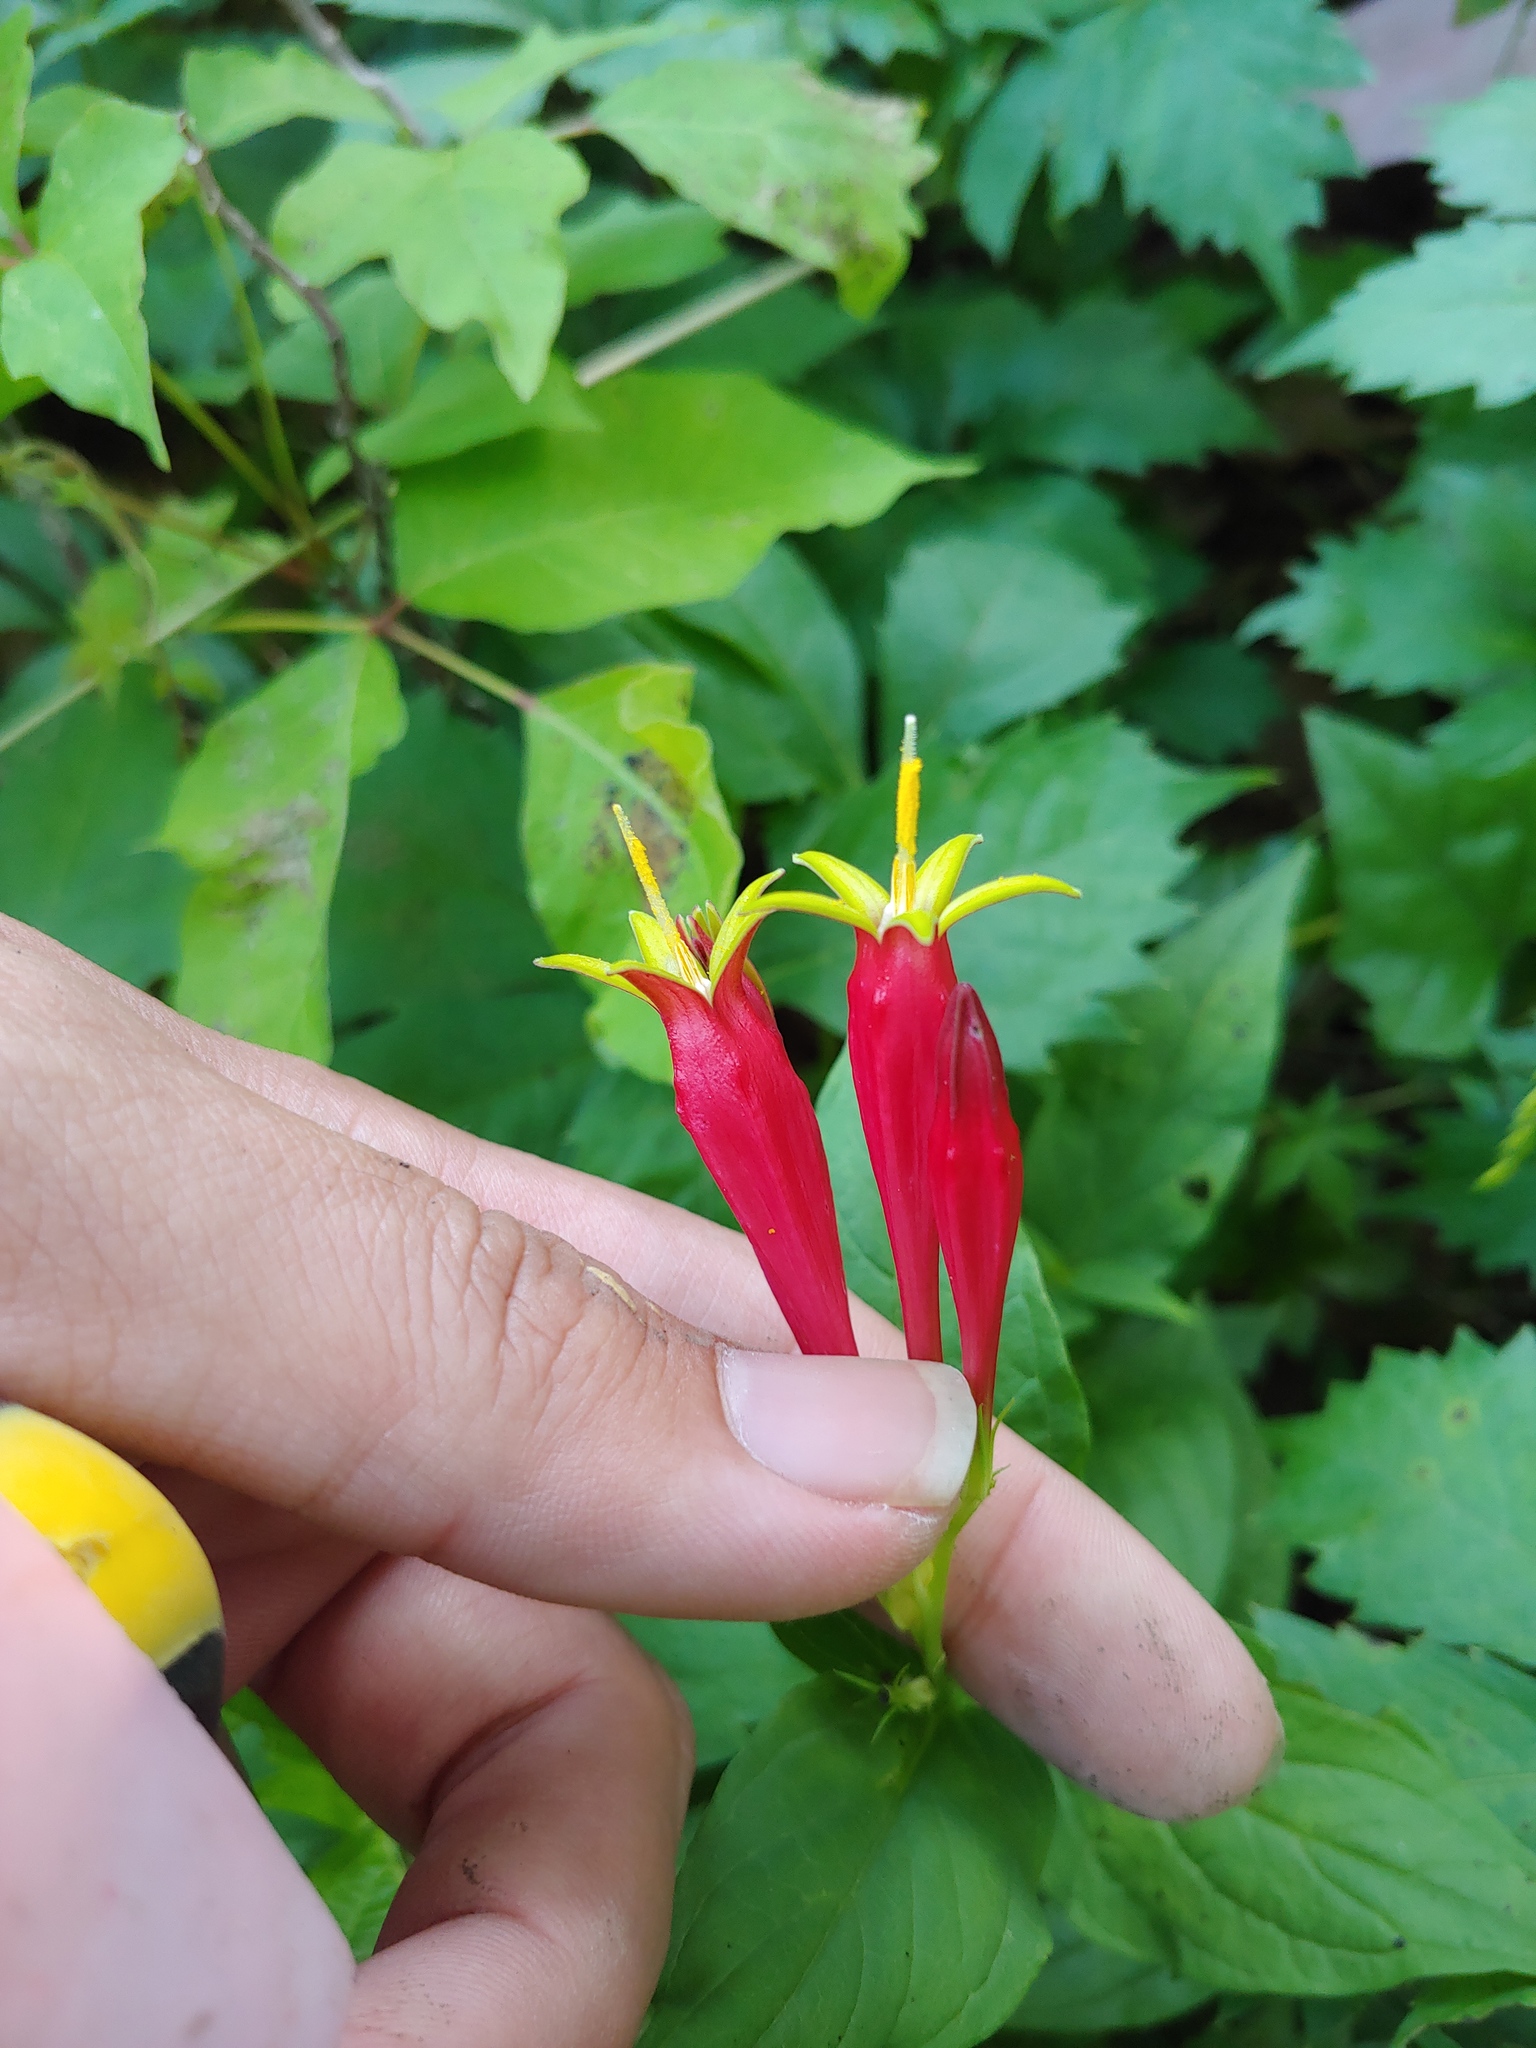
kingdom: Plantae
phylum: Tracheophyta
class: Magnoliopsida
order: Gentianales
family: Loganiaceae
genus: Spigelia
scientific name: Spigelia marilandica
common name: Indian-pink
